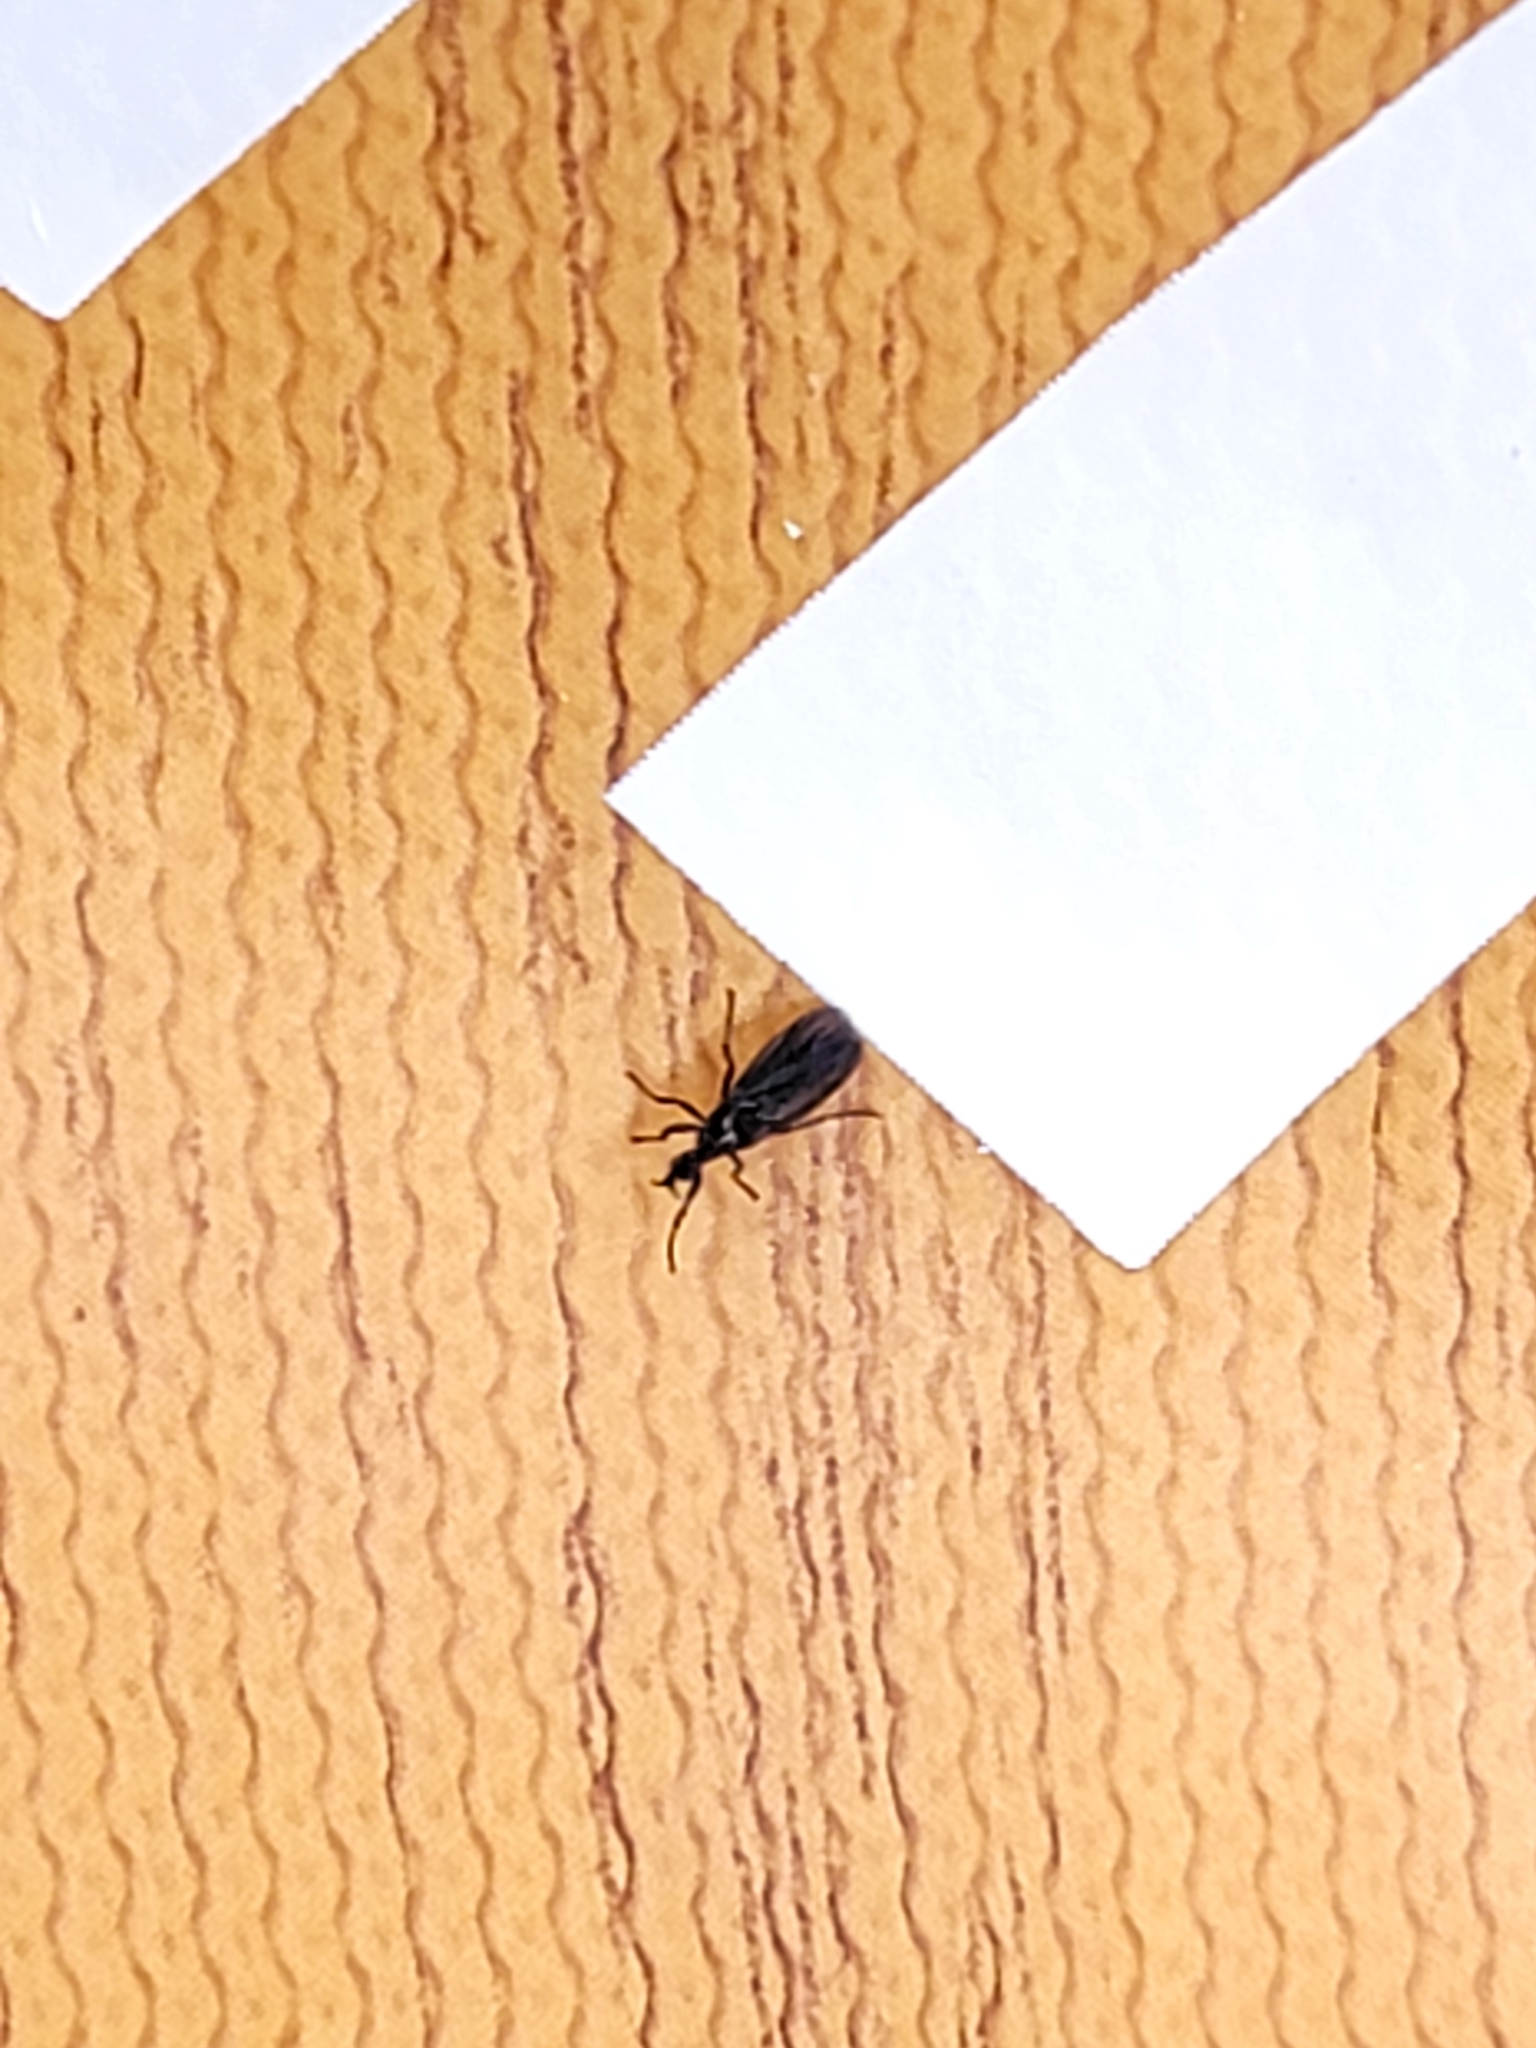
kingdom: Animalia
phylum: Arthropoda
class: Insecta
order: Diptera
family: Bibionidae
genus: Dilophus
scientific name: Dilophus orbatus
